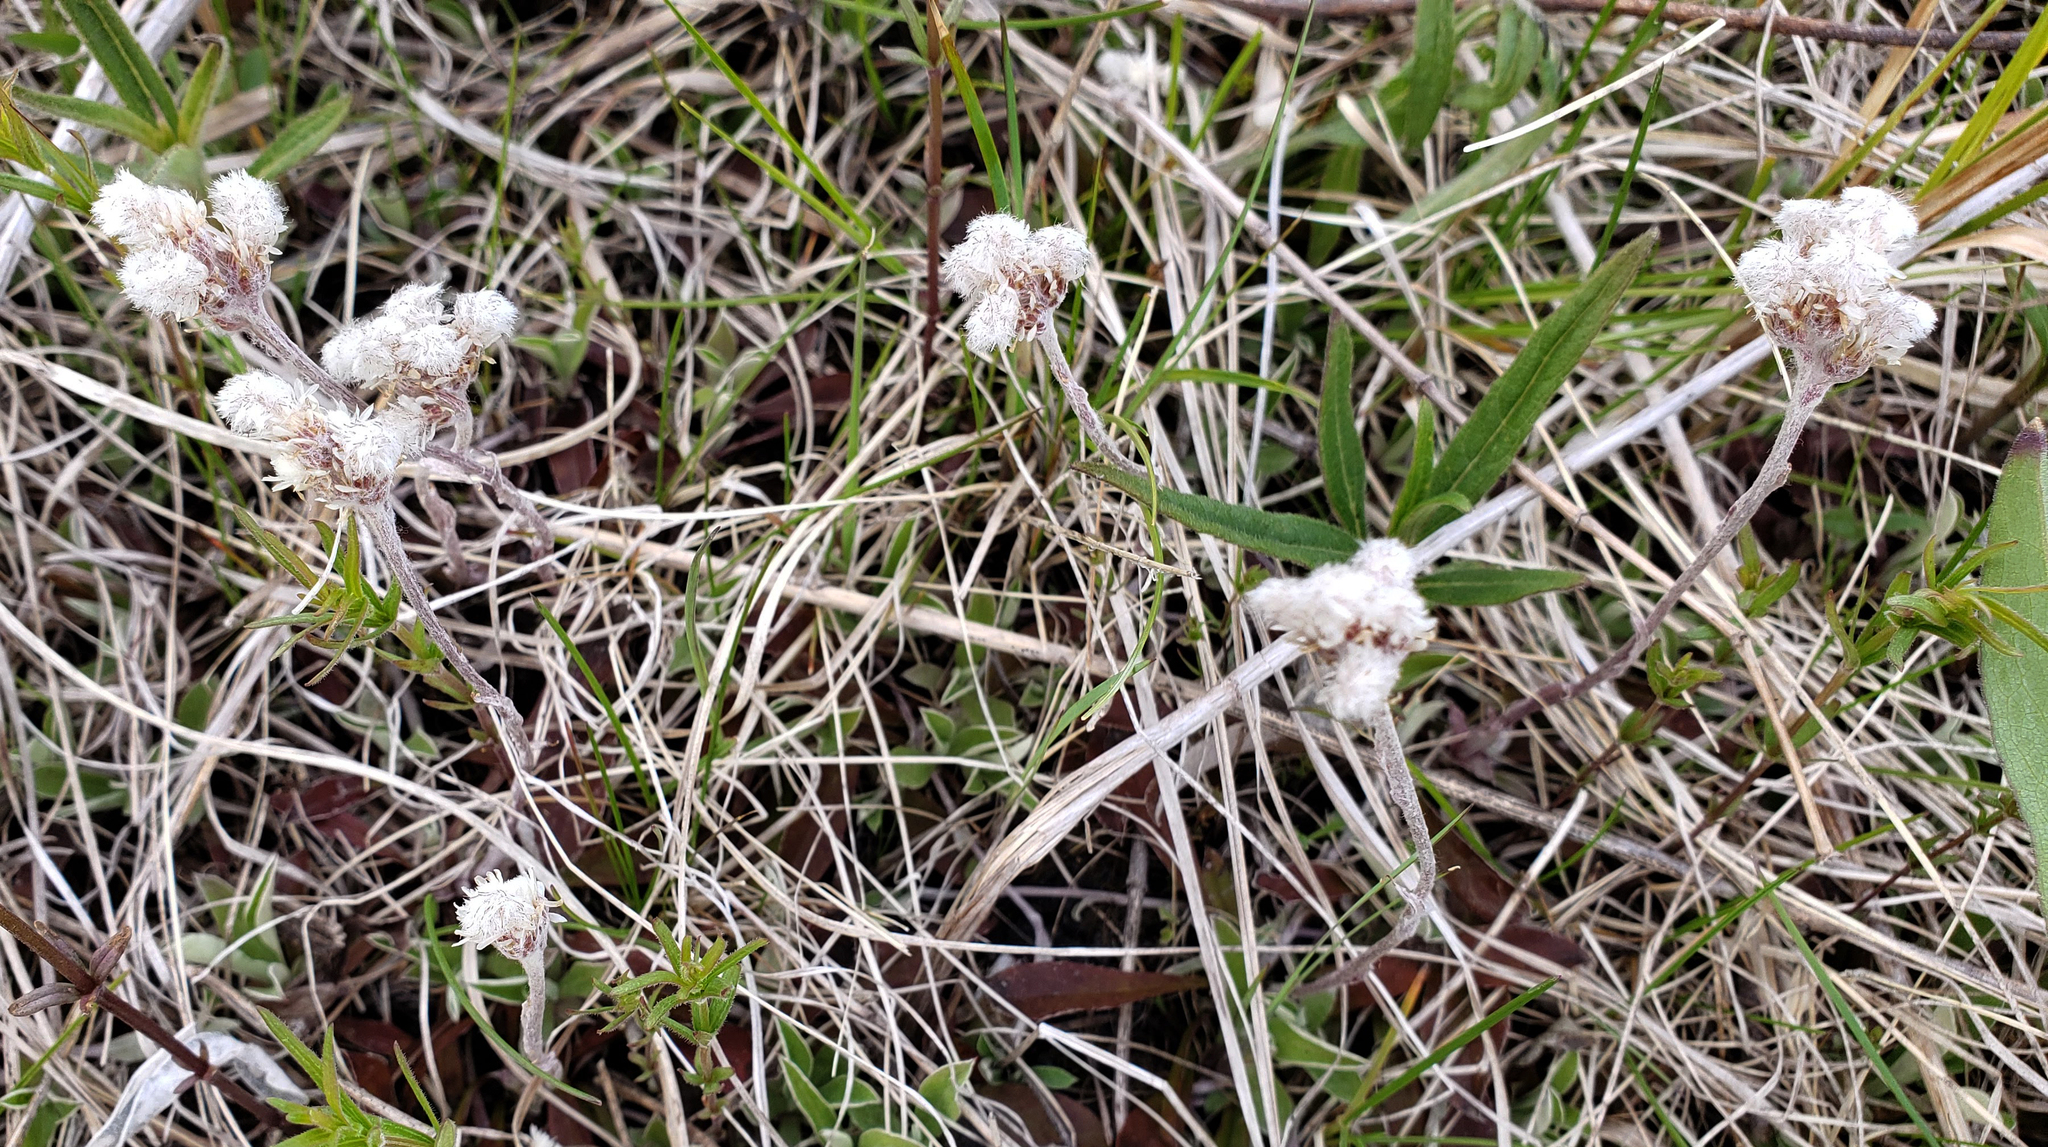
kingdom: Plantae
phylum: Tracheophyta
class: Magnoliopsida
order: Asterales
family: Asteraceae
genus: Antennaria
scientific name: Antennaria neglecta
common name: Field pussytoes
